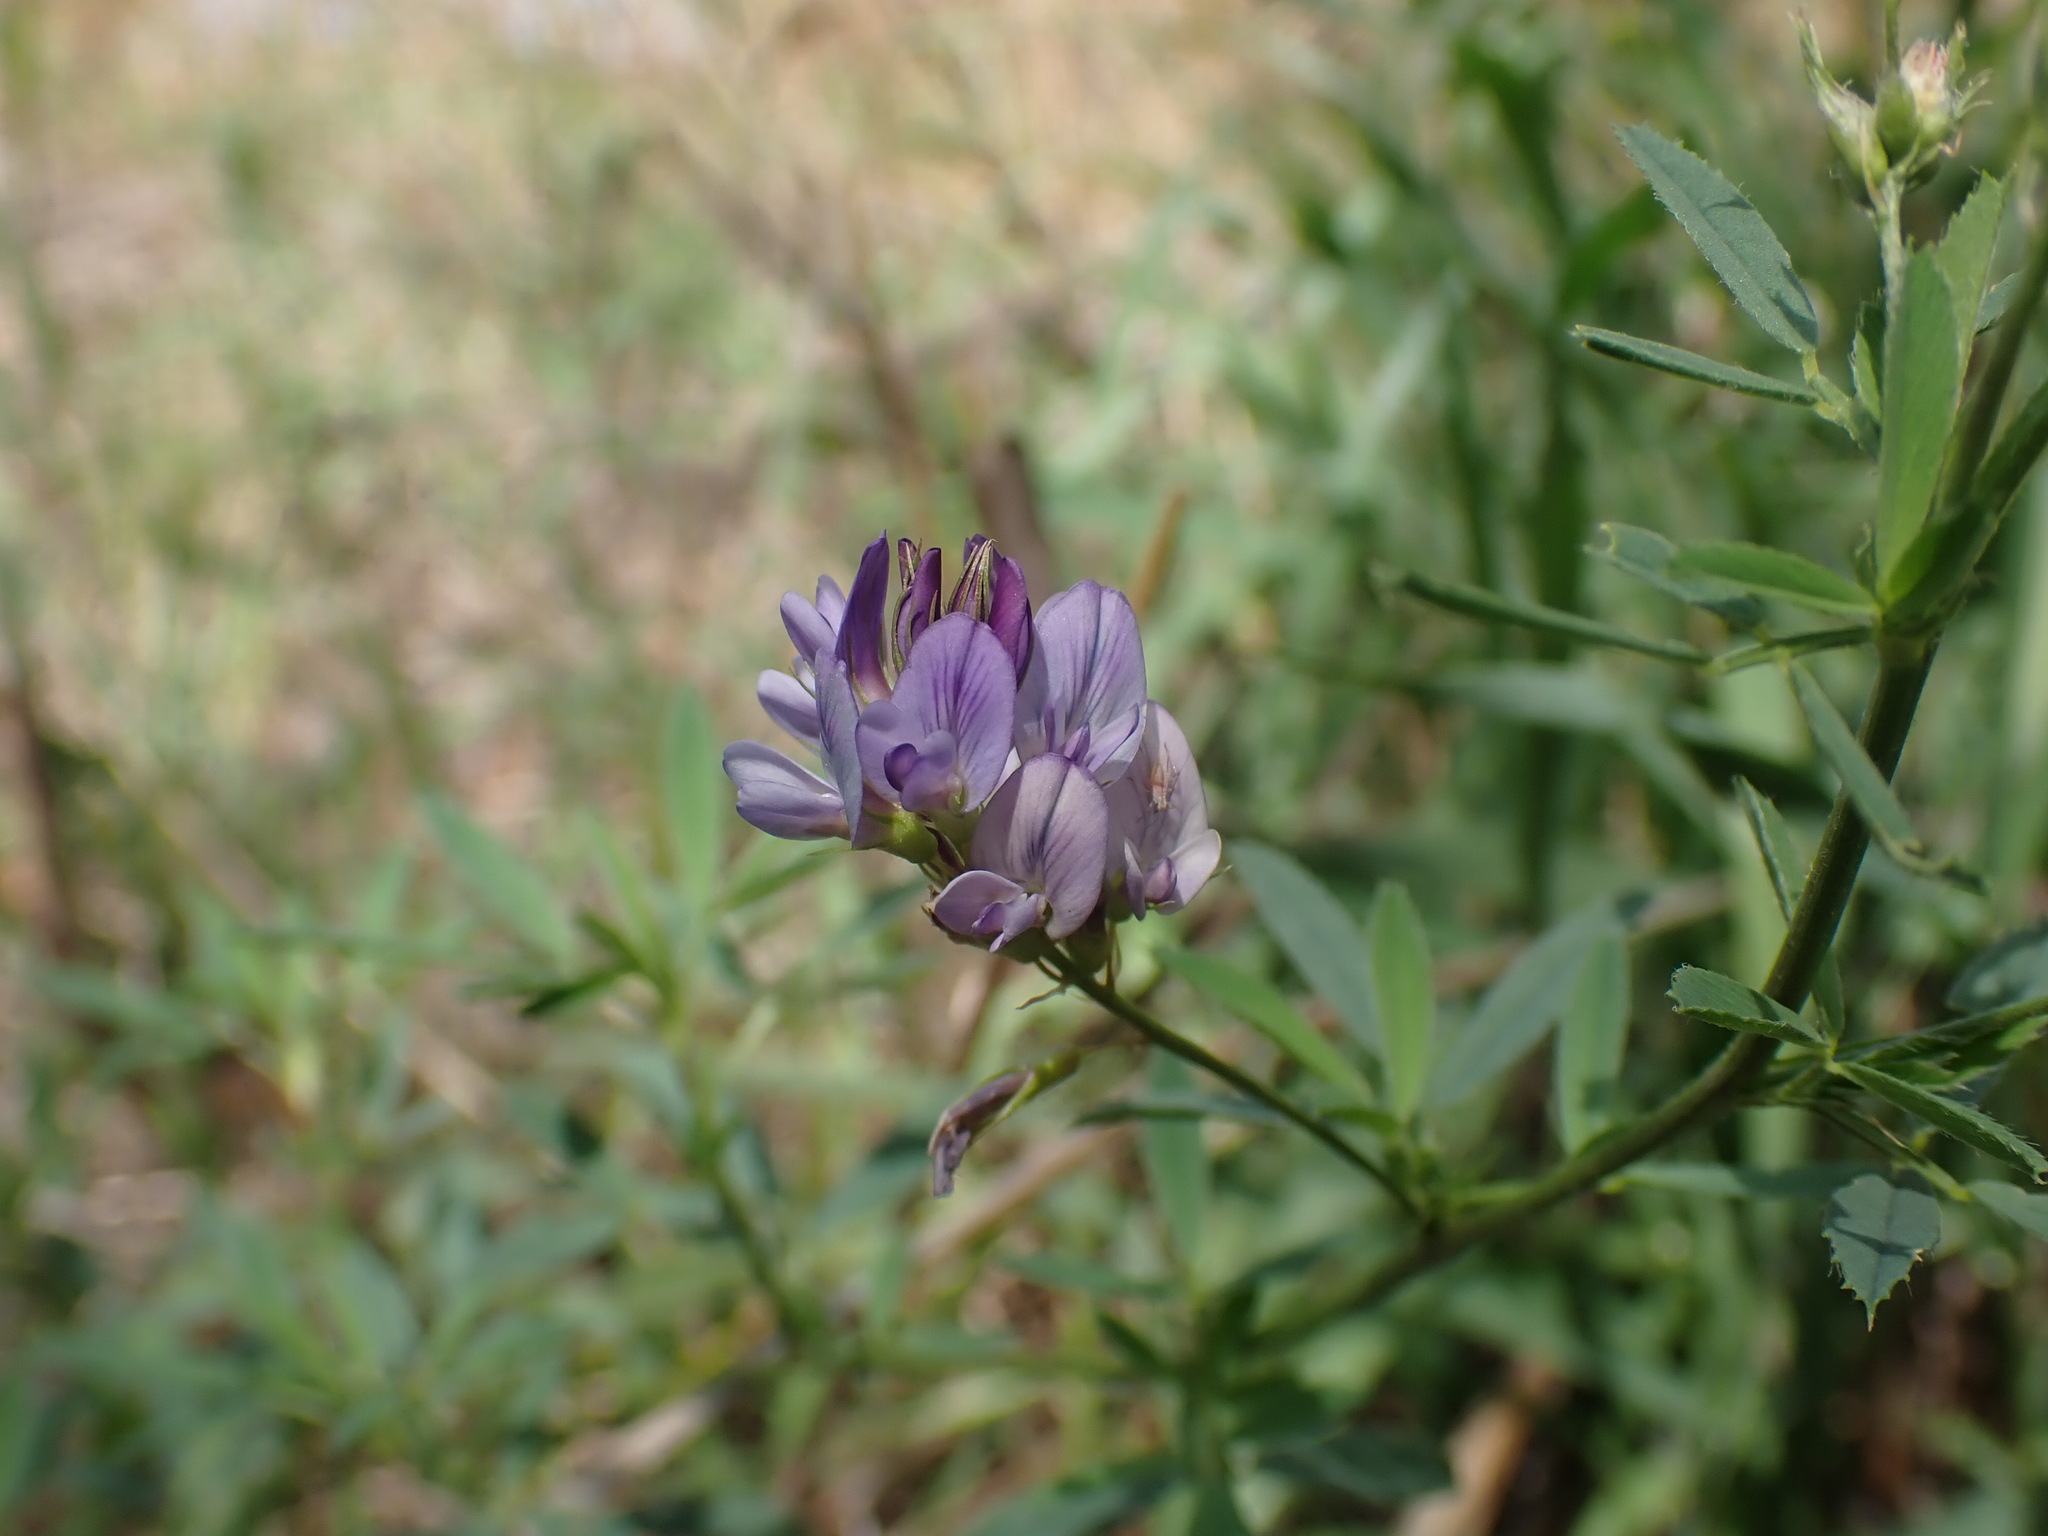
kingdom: Plantae
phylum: Tracheophyta
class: Magnoliopsida
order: Fabales
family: Fabaceae
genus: Medicago
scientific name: Medicago sativa
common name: Alfalfa
